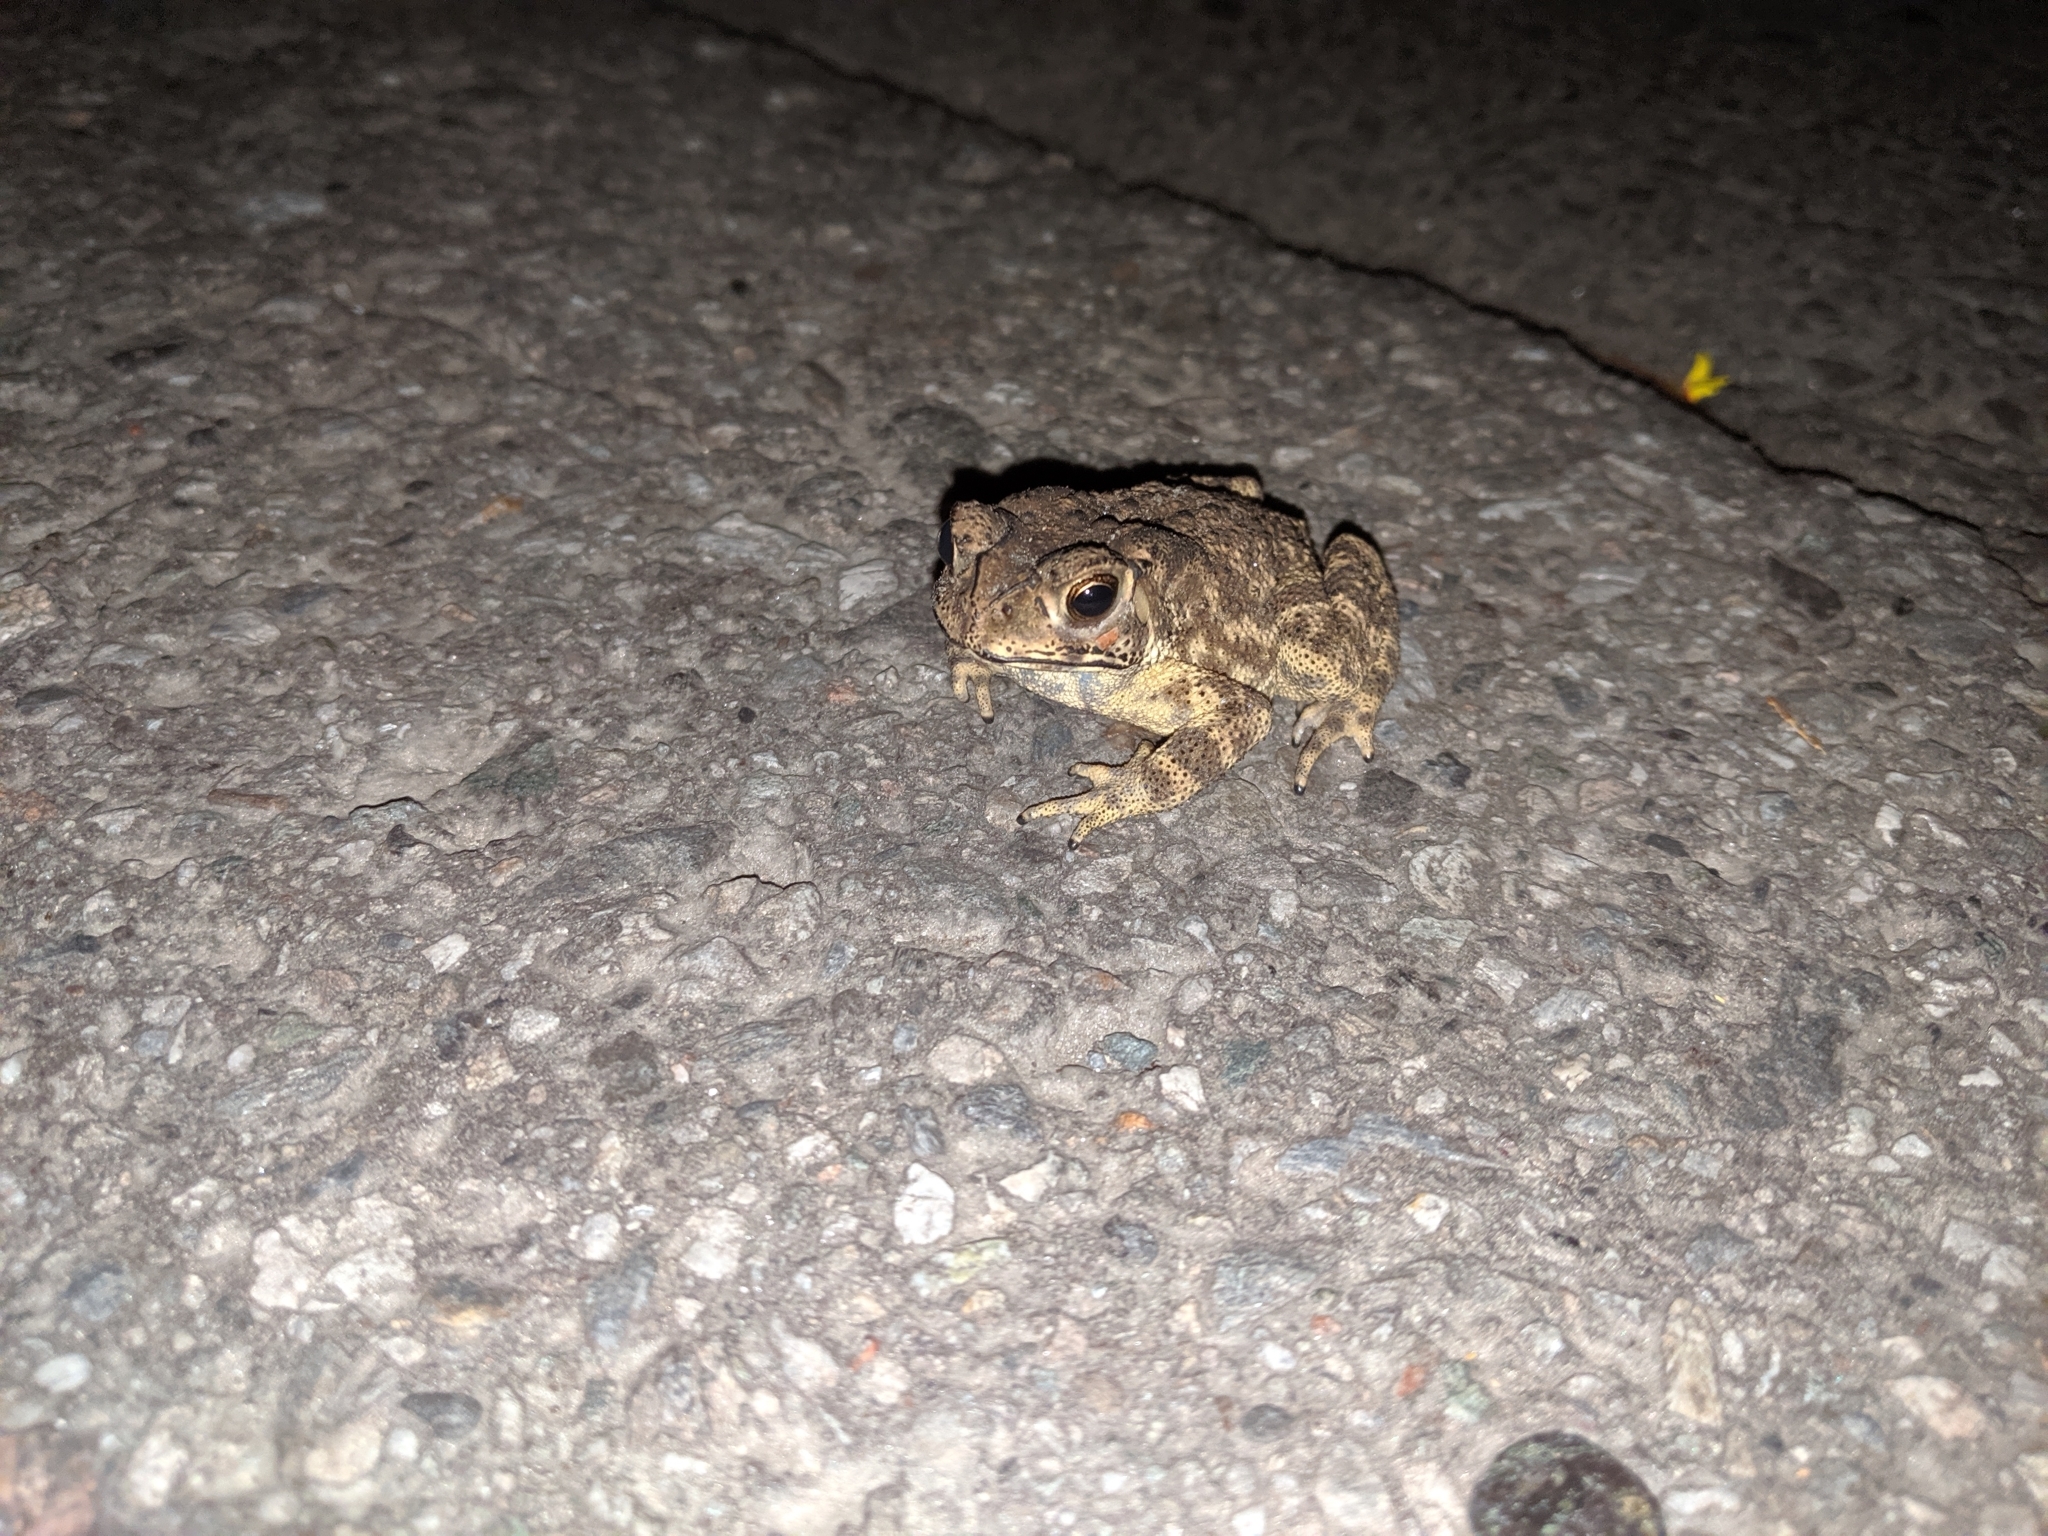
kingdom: Animalia
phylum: Chordata
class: Amphibia
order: Anura
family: Bufonidae
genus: Duttaphrynus
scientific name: Duttaphrynus melanostictus
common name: Common sunda toad
